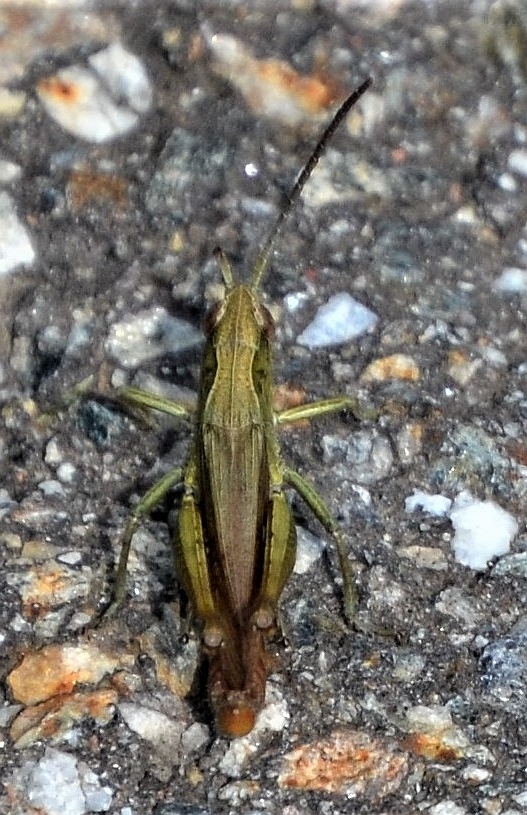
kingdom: Animalia
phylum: Arthropoda
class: Insecta
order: Orthoptera
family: Acrididae
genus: Chorthippus
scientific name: Chorthippus dorsatus
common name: Steppe grasshopper
